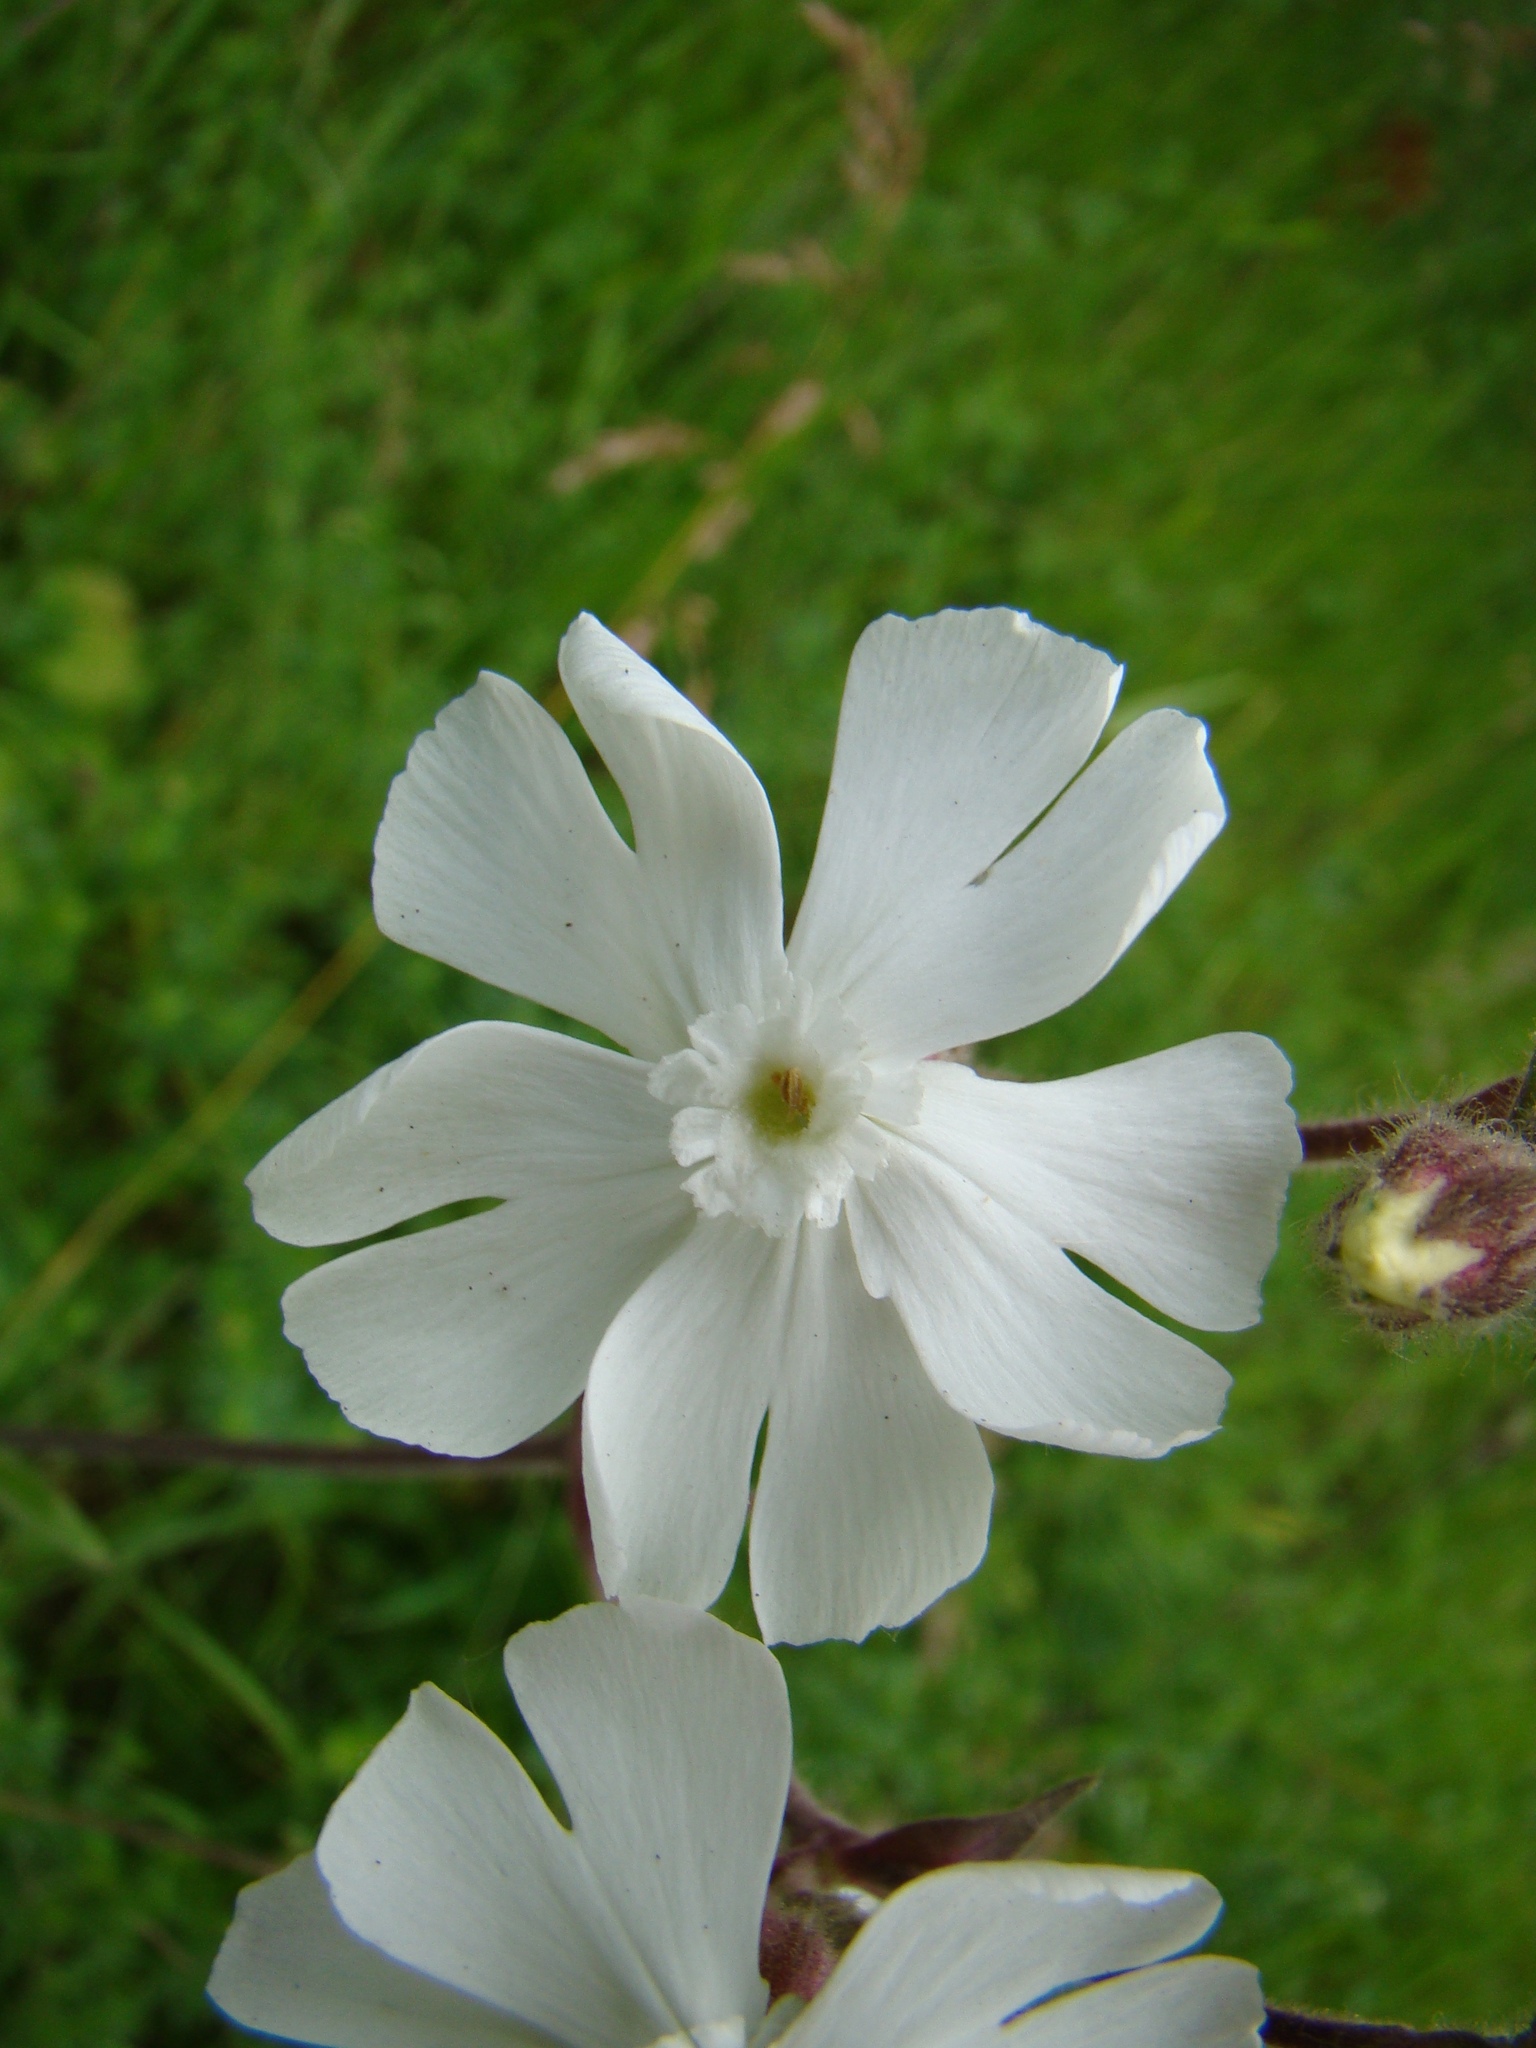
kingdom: Plantae
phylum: Tracheophyta
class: Magnoliopsida
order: Caryophyllales
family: Caryophyllaceae
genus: Silene
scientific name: Silene latifolia
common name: White campion
